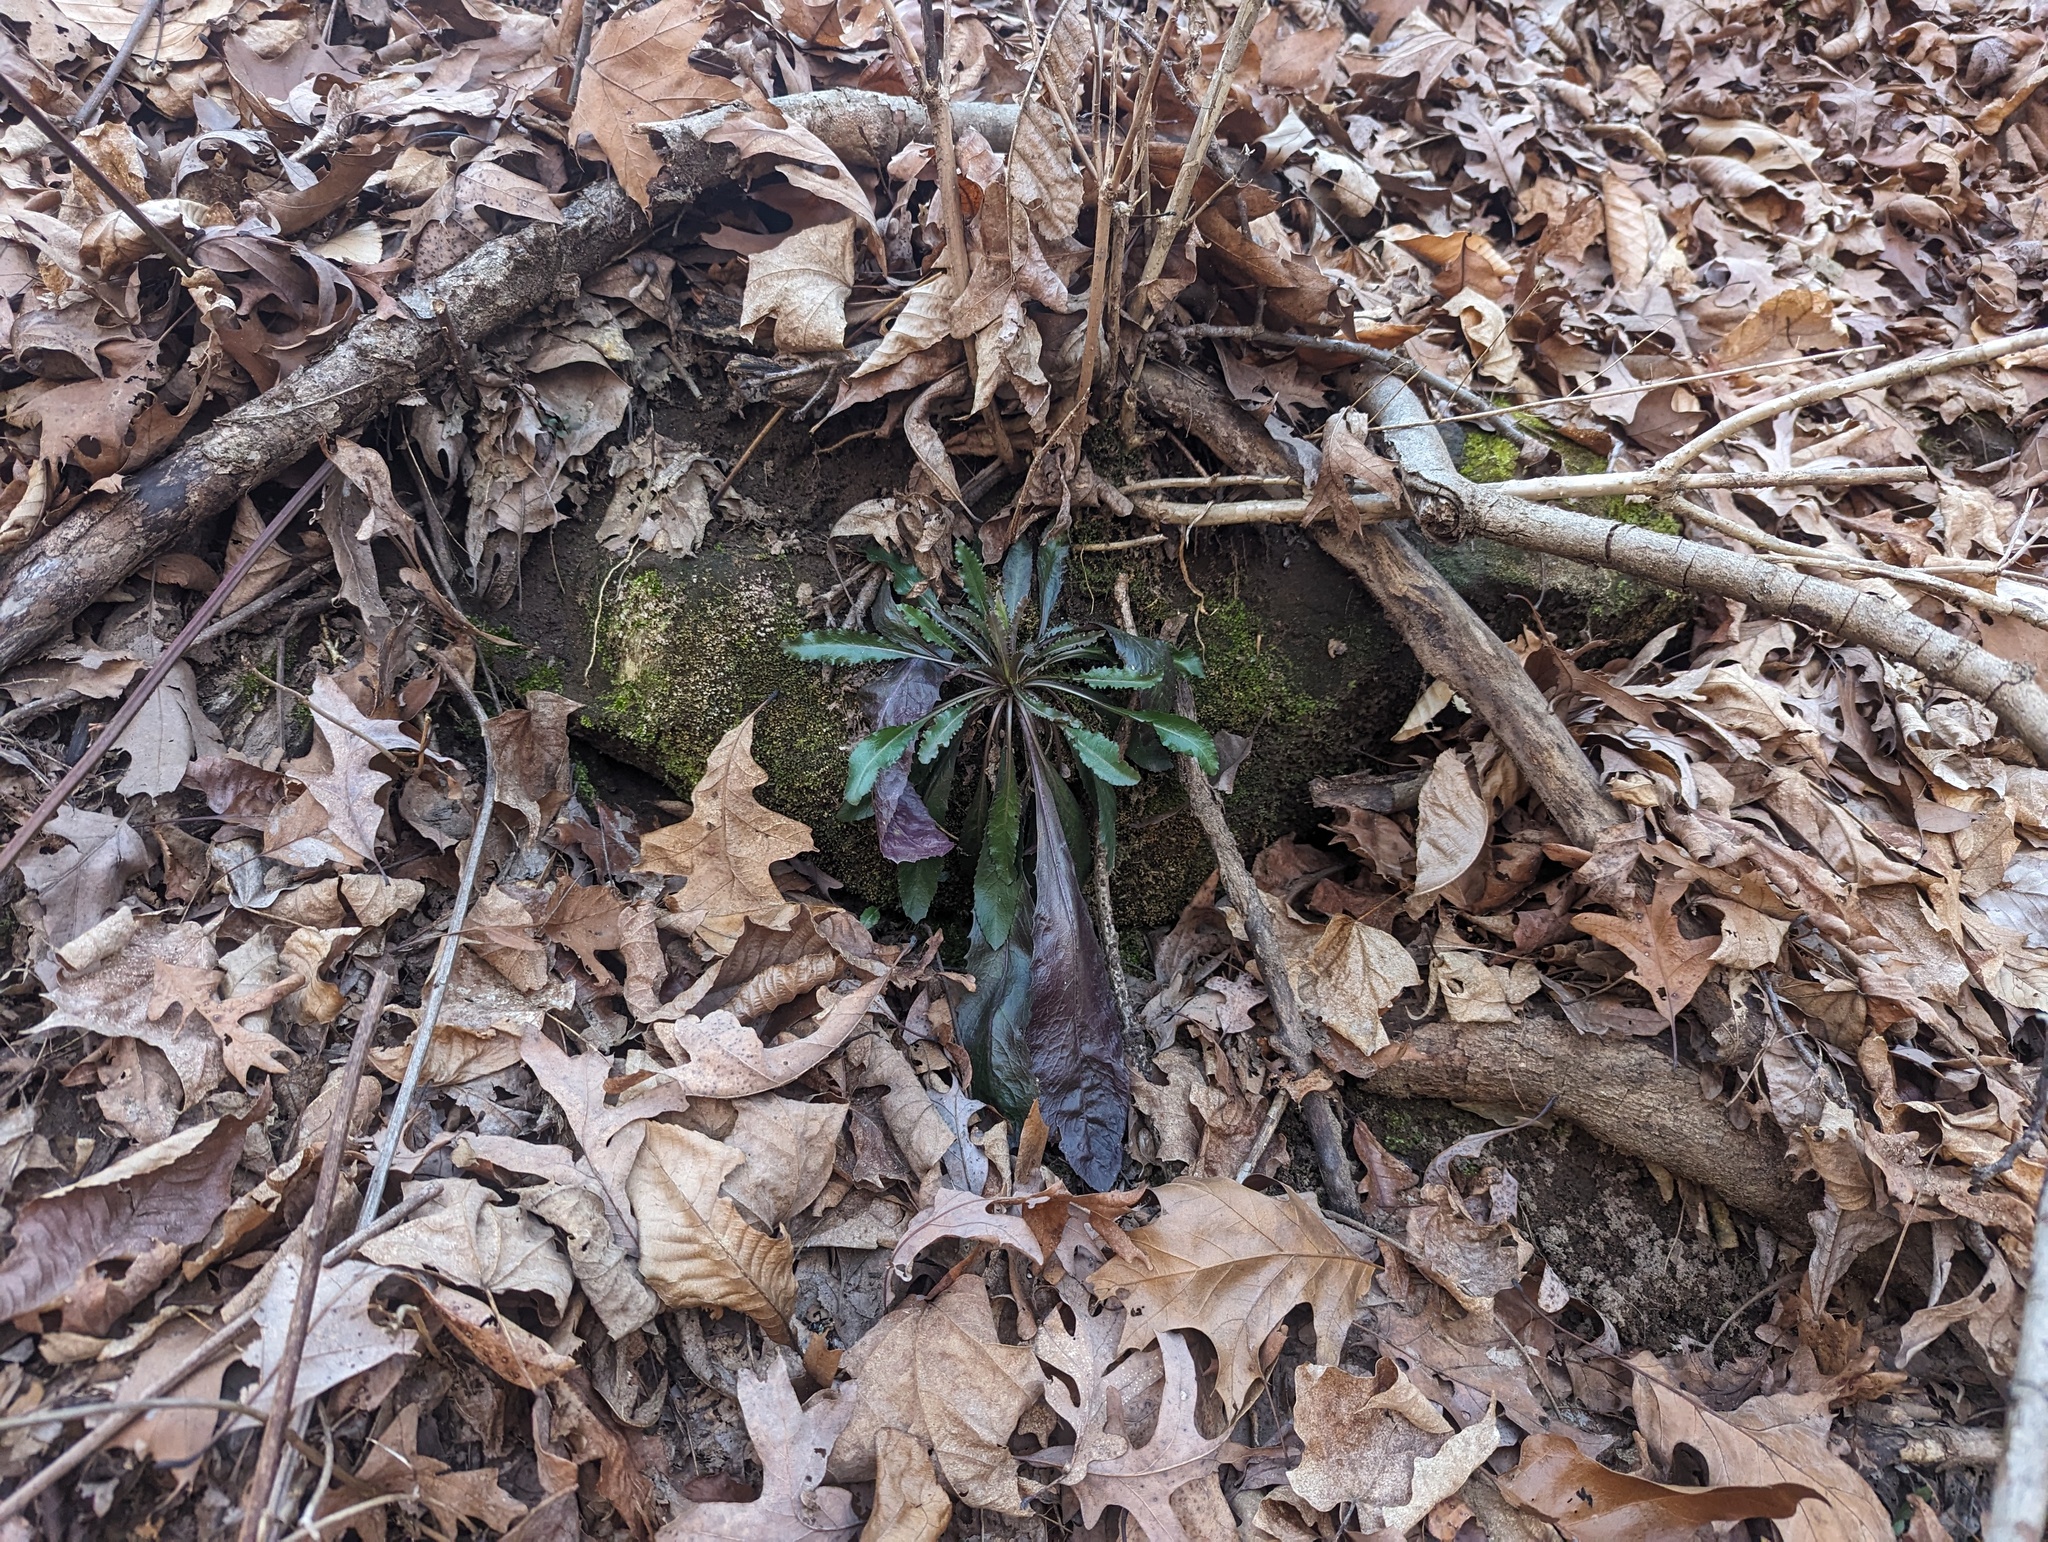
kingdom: Plantae
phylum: Tracheophyta
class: Magnoliopsida
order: Brassicales
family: Brassicaceae
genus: Borodinia
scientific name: Borodinia laevigata
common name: Smooth rockcress
